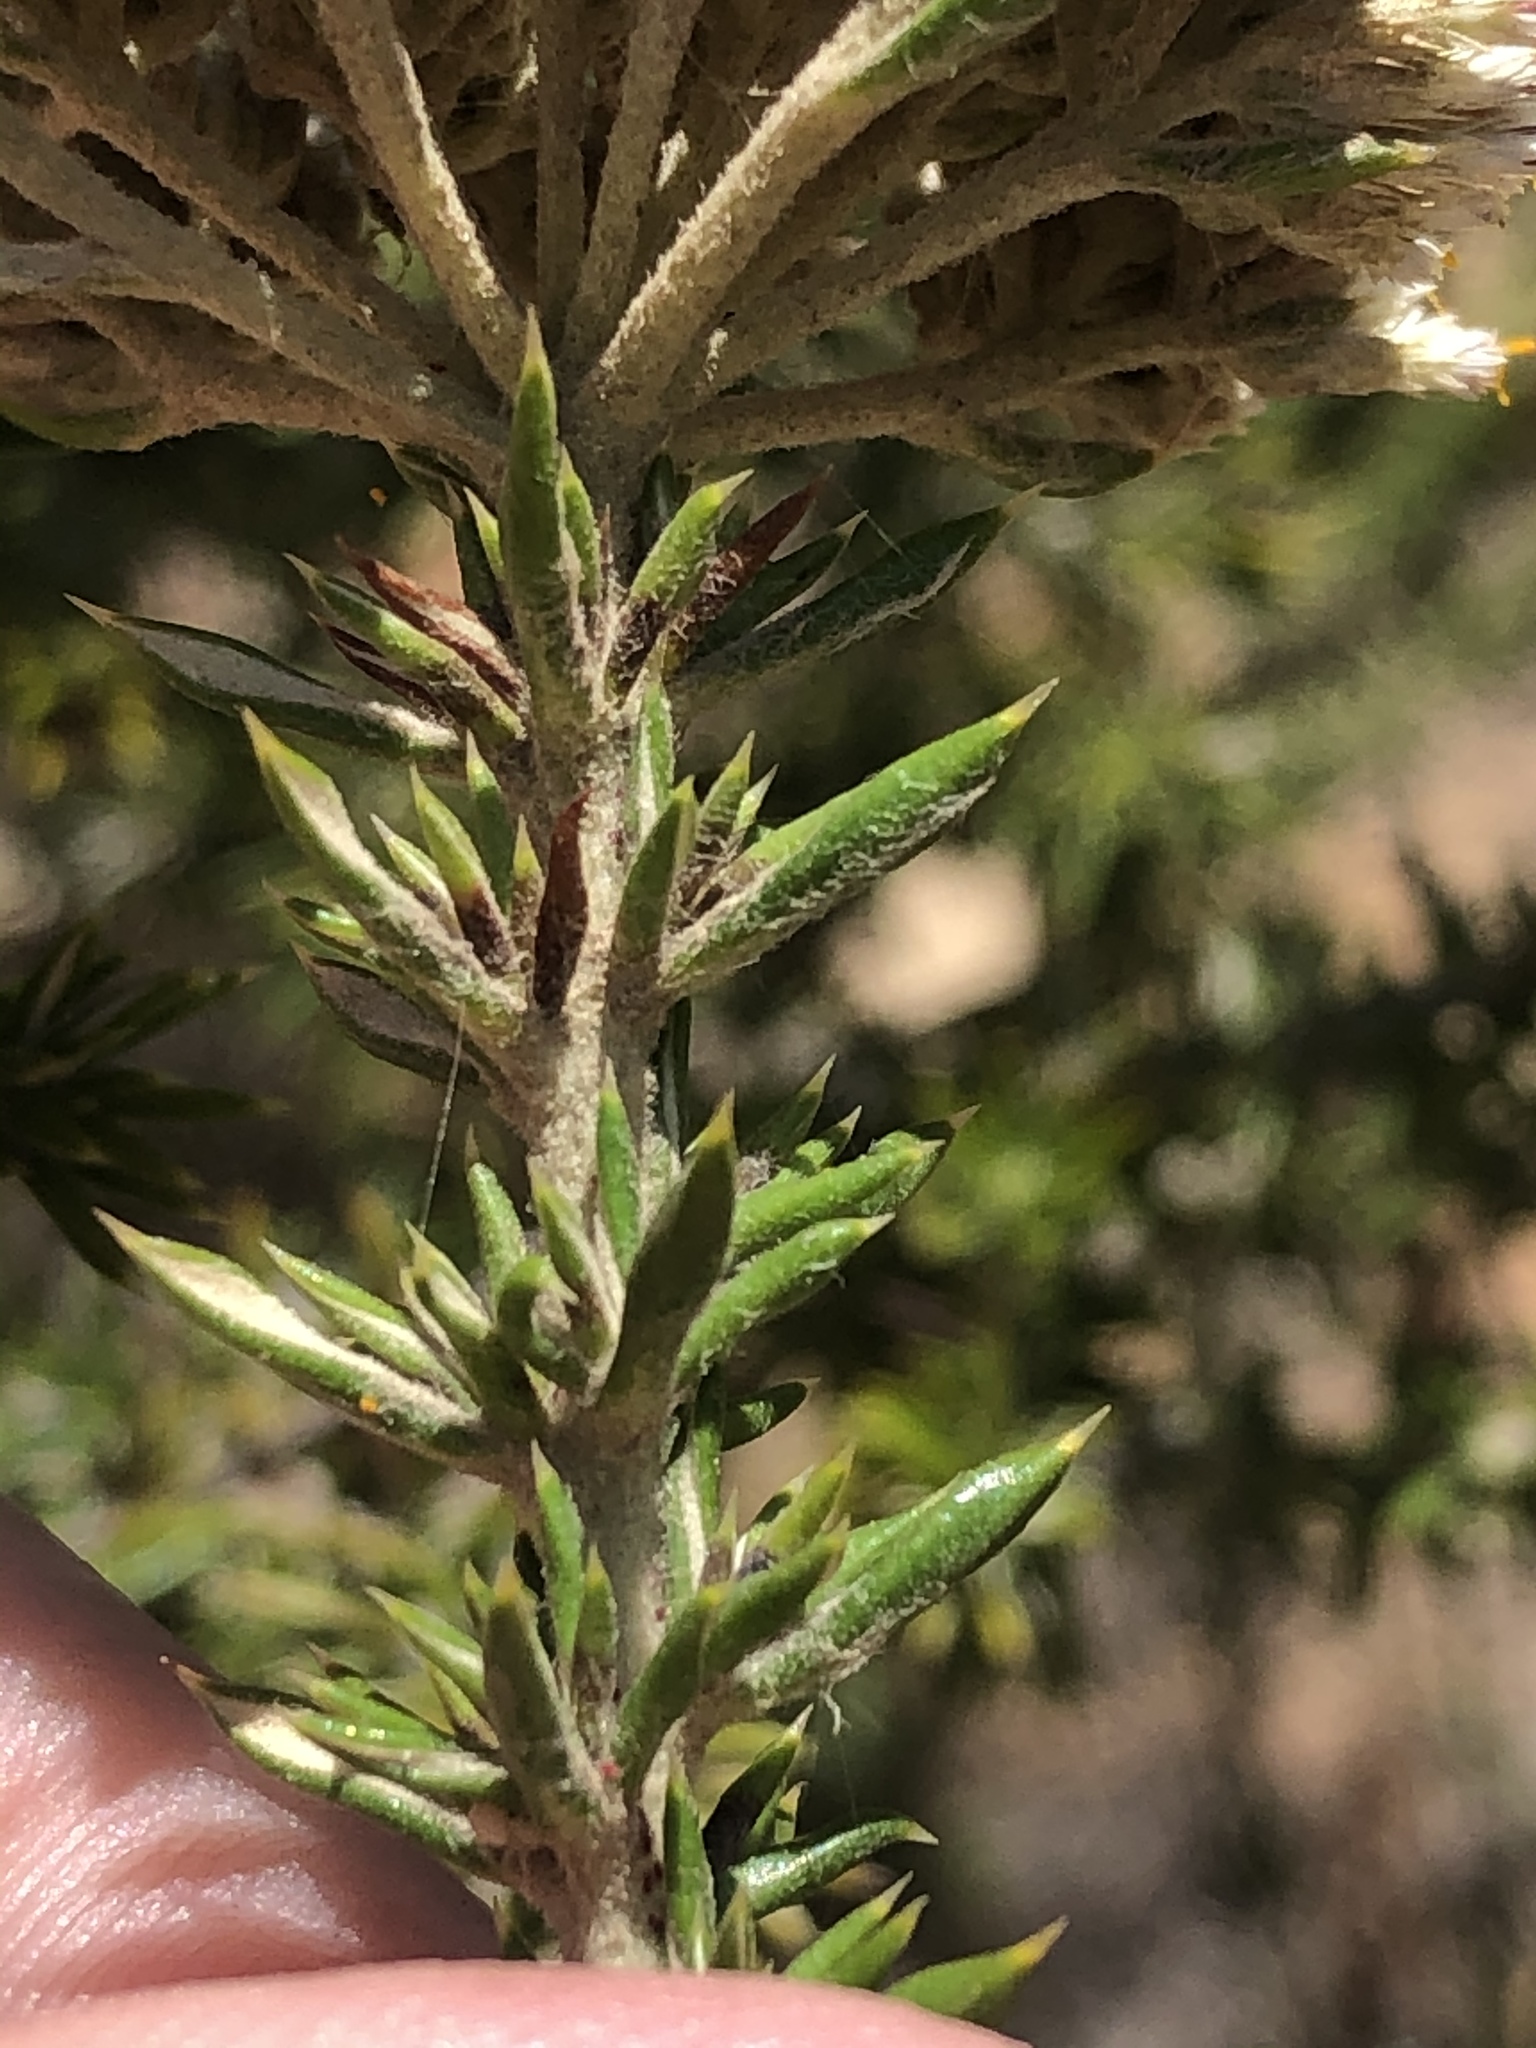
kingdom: Plantae
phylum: Tracheophyta
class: Magnoliopsida
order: Asterales
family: Asteraceae
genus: Metalasia
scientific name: Metalasia trivialis
